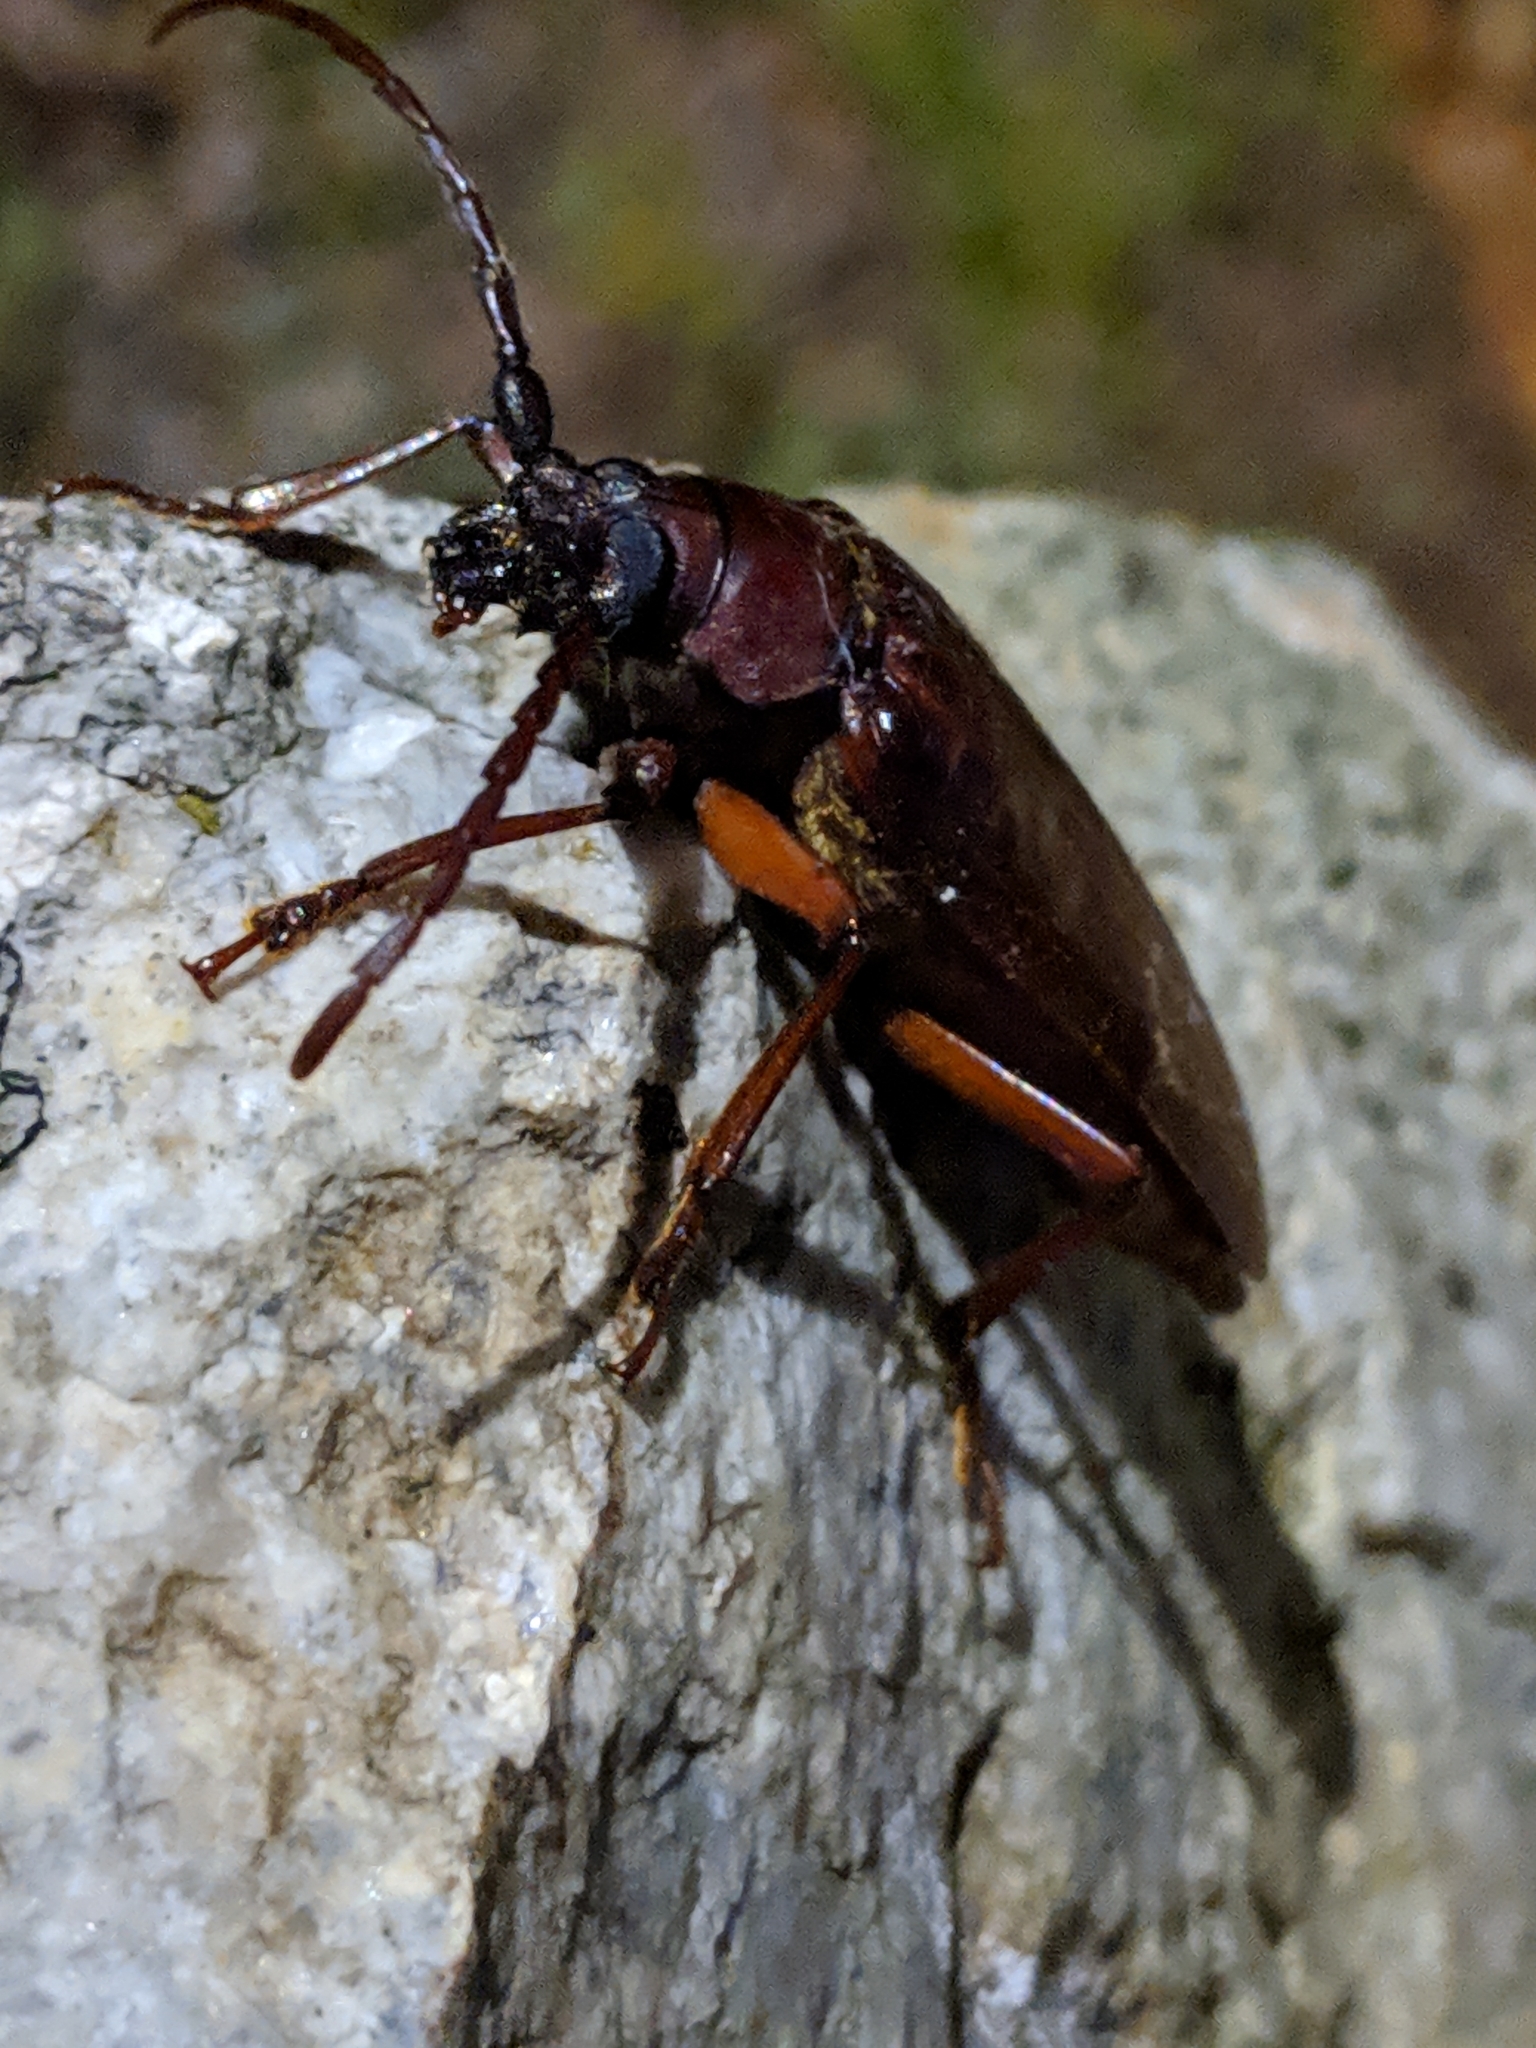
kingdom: Animalia
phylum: Arthropoda
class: Insecta
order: Coleoptera
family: Cerambycidae
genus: Orthosoma
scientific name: Orthosoma brunneum
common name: Brown prionid beetle
